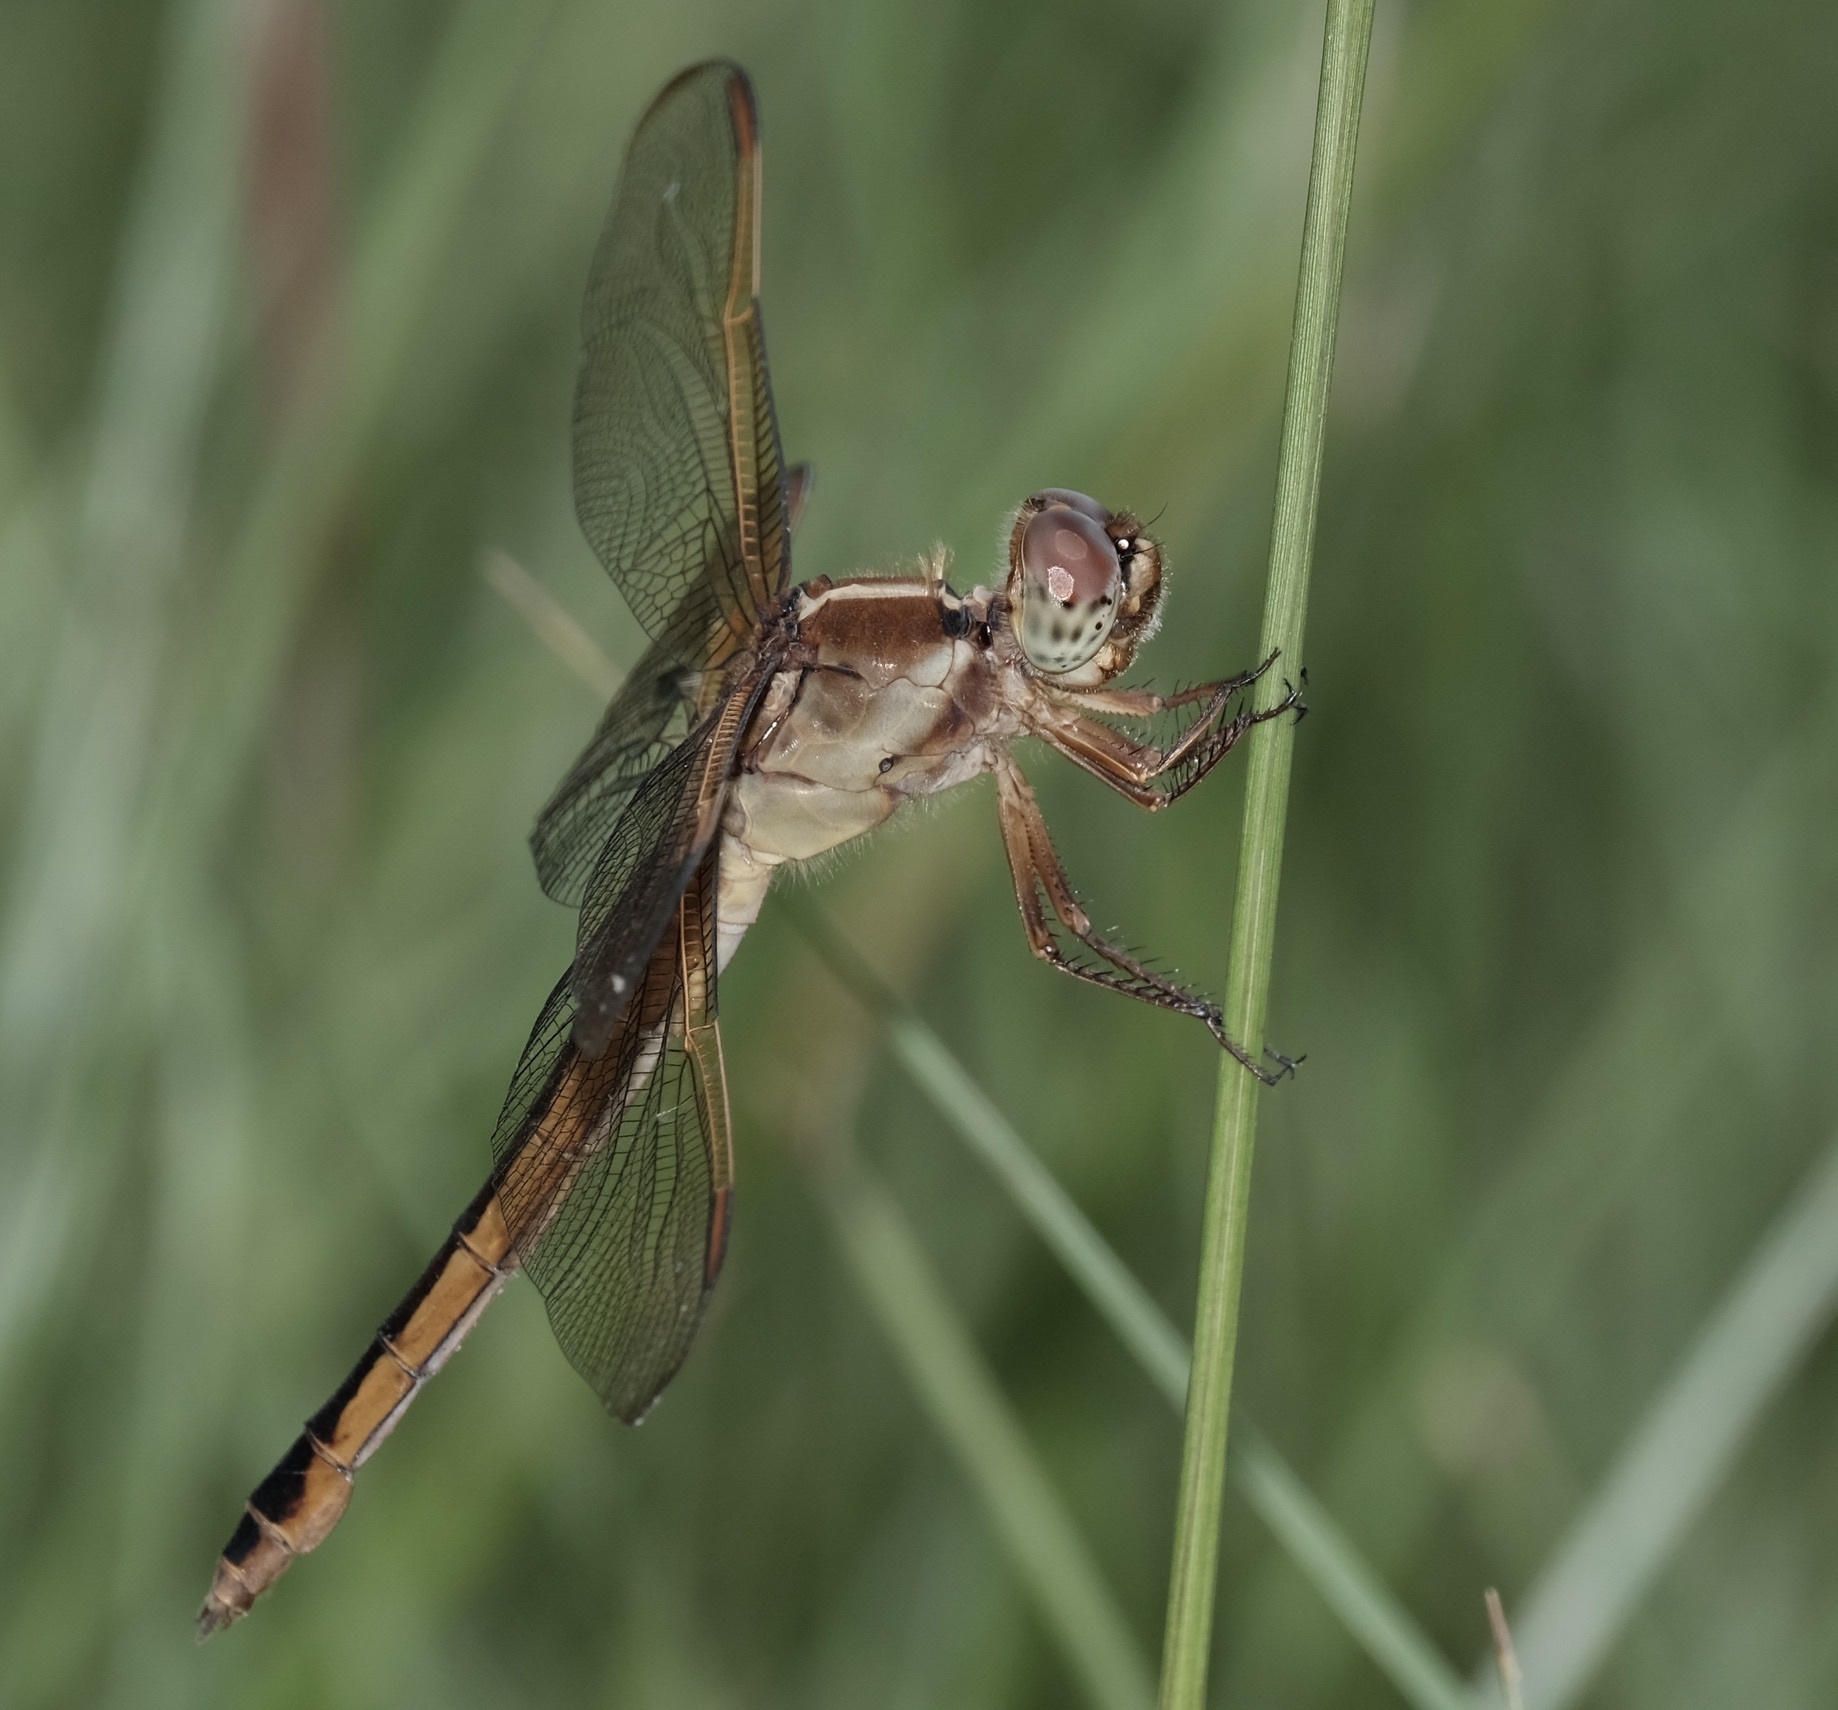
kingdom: Animalia
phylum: Arthropoda
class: Insecta
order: Odonata
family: Libellulidae
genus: Libellula
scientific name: Libellula needhami
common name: Needham's skimmer
